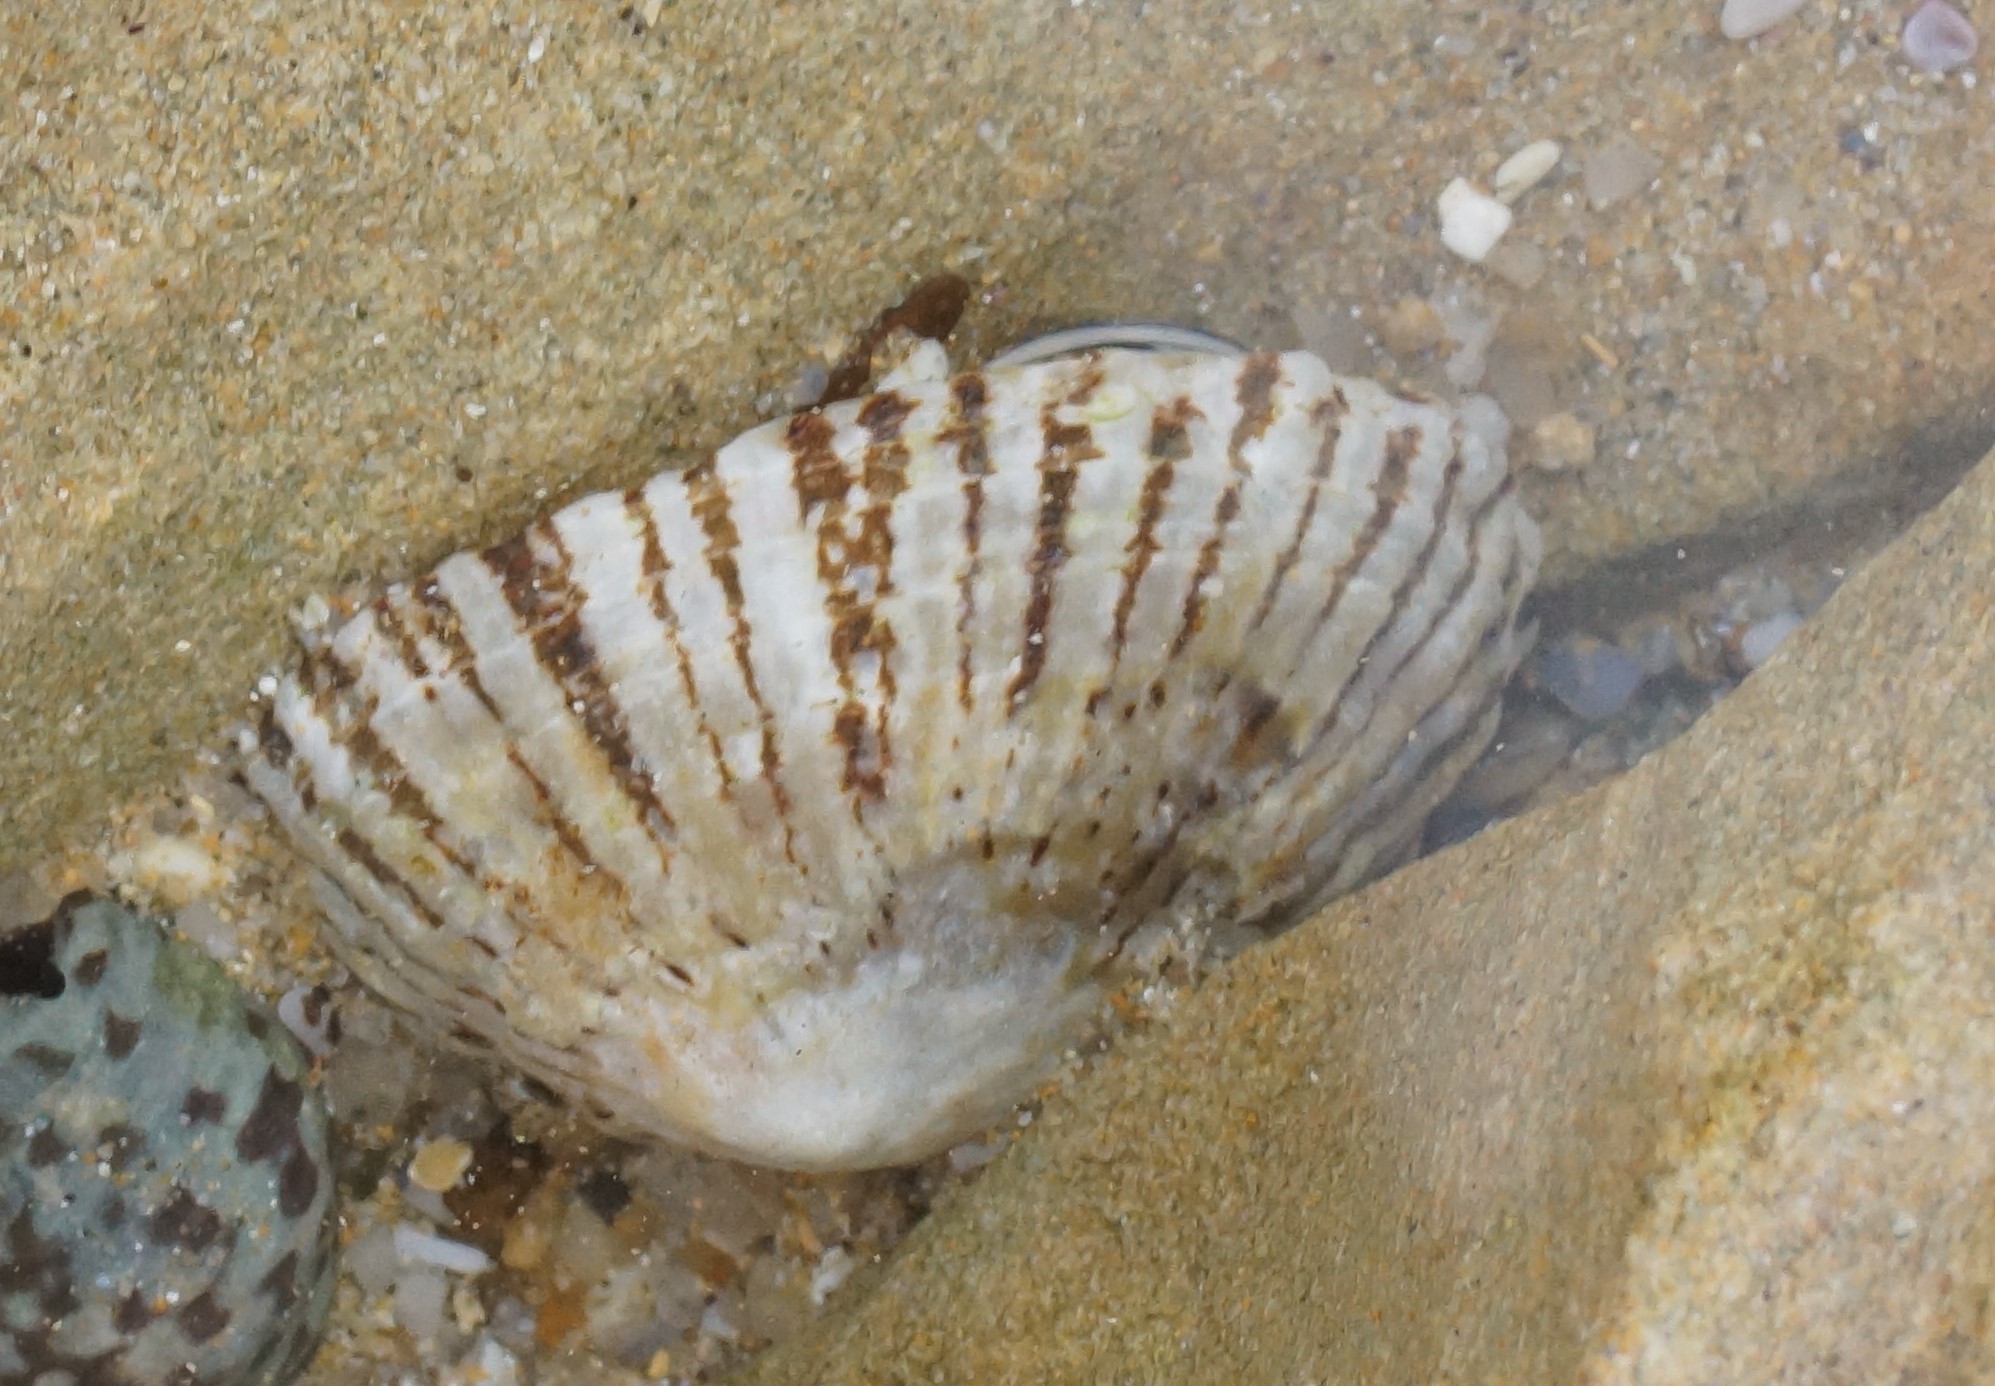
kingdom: Animalia
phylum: Mollusca
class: Gastropoda
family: Nacellidae
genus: Cellana
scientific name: Cellana tramoserica
